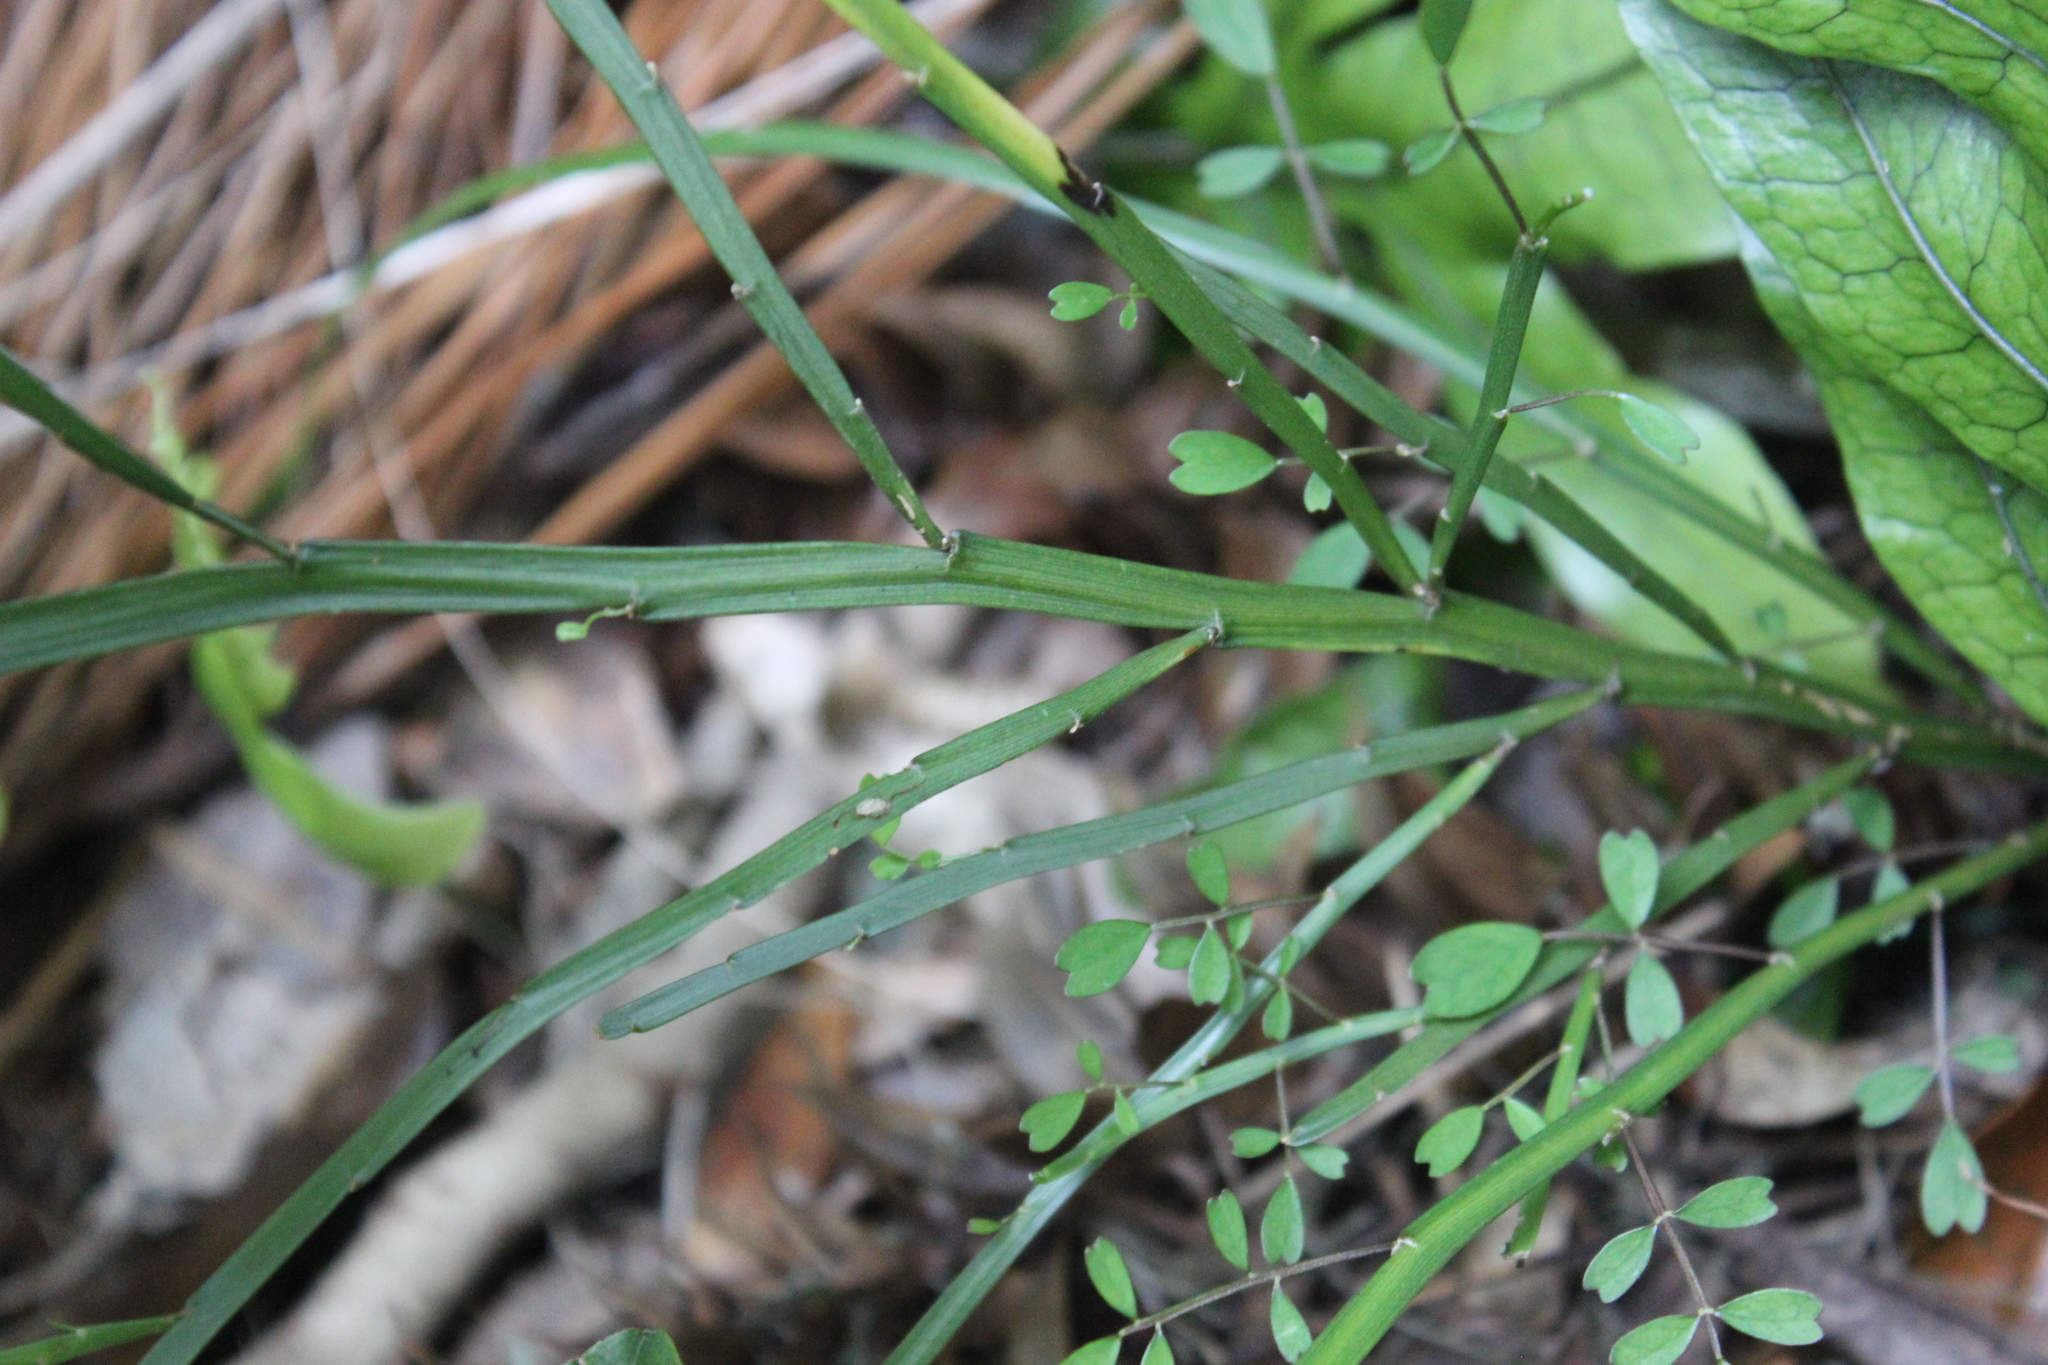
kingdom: Plantae
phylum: Tracheophyta
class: Magnoliopsida
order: Fabales
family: Fabaceae
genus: Carmichaelia
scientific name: Carmichaelia australis
